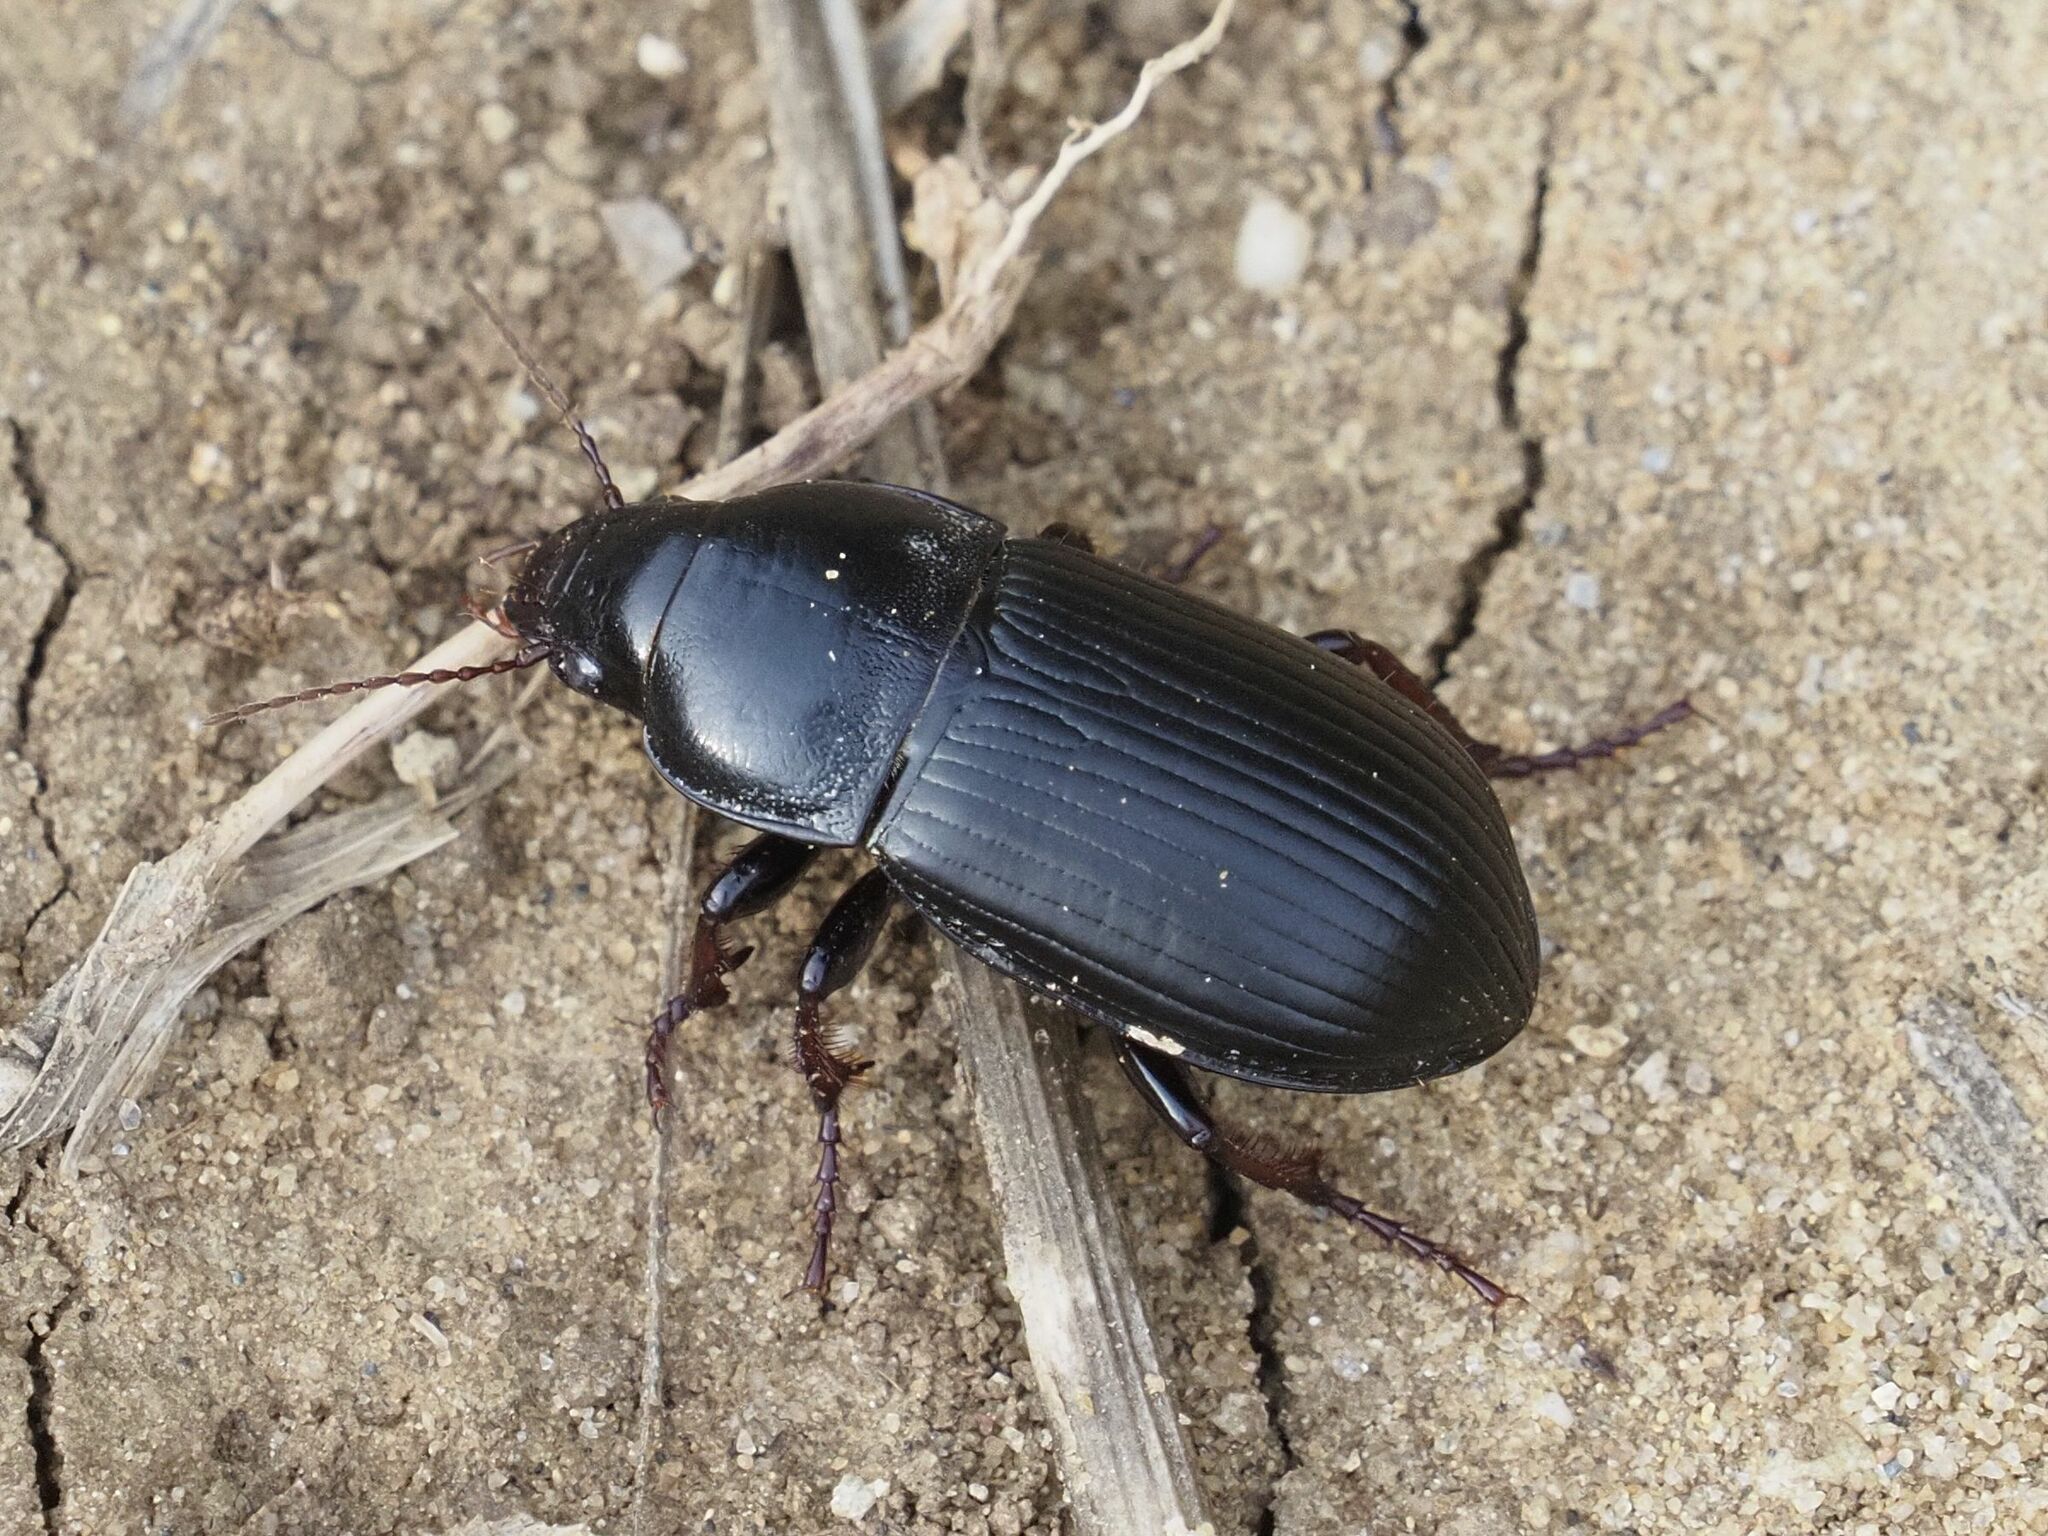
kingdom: Animalia
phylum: Arthropoda
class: Insecta
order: Coleoptera
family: Carabidae
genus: Zabrus
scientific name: Zabrus tenebrioides
